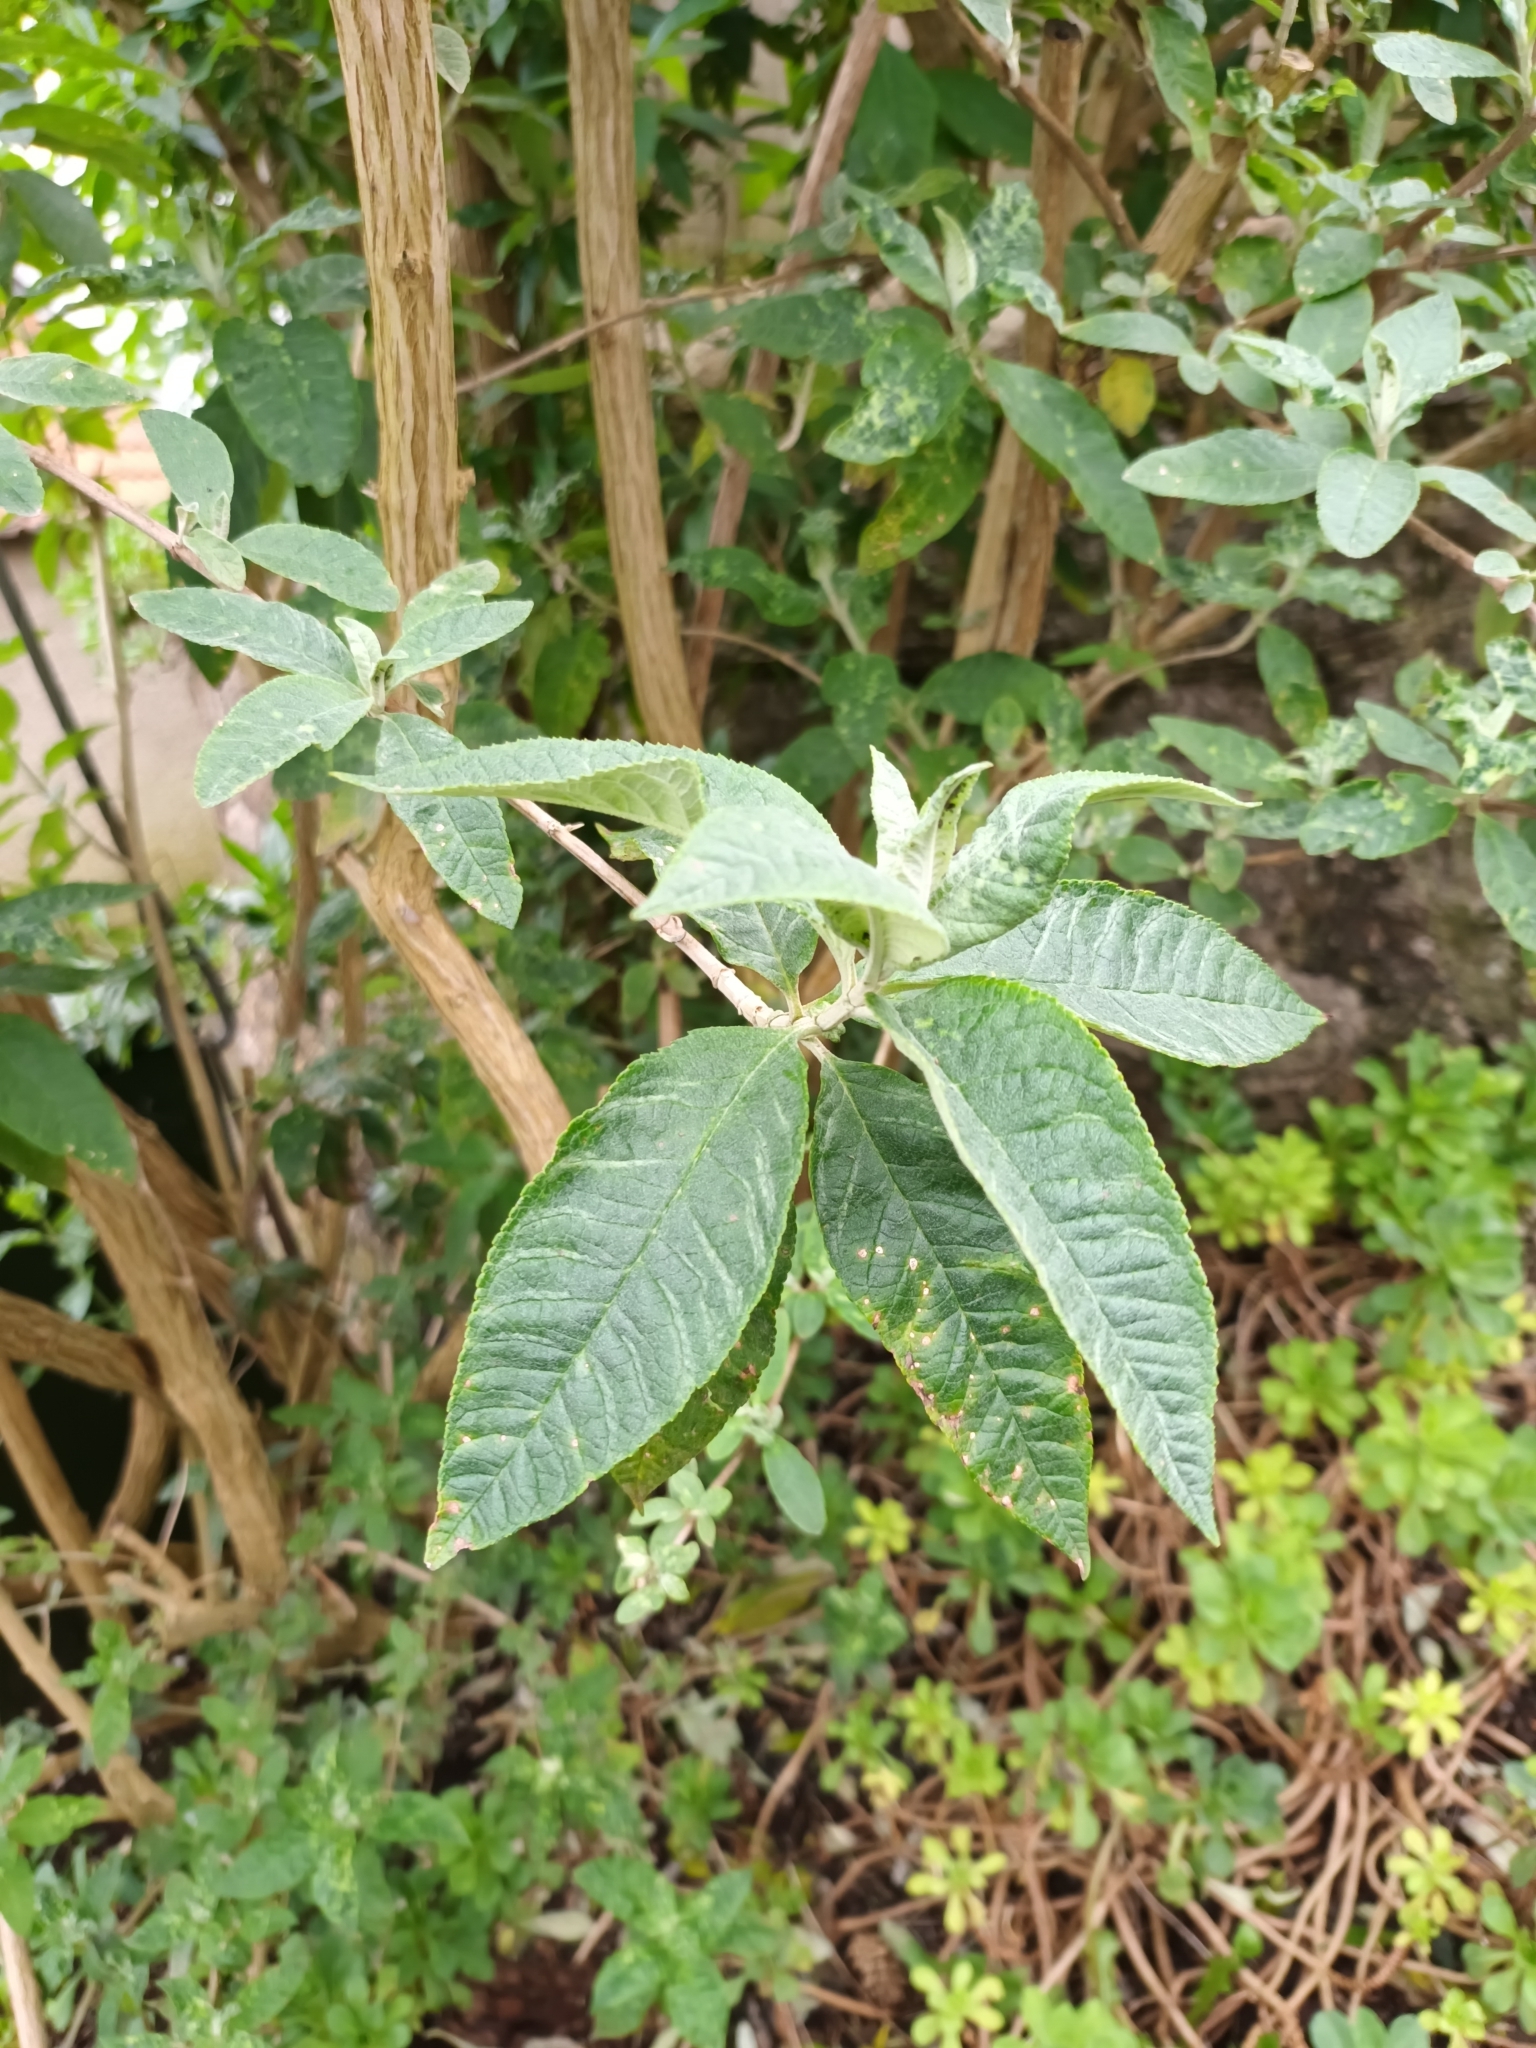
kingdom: Plantae
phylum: Tracheophyta
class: Magnoliopsida
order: Lamiales
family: Scrophulariaceae
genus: Buddleja
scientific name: Buddleja davidii
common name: Butterfly-bush
